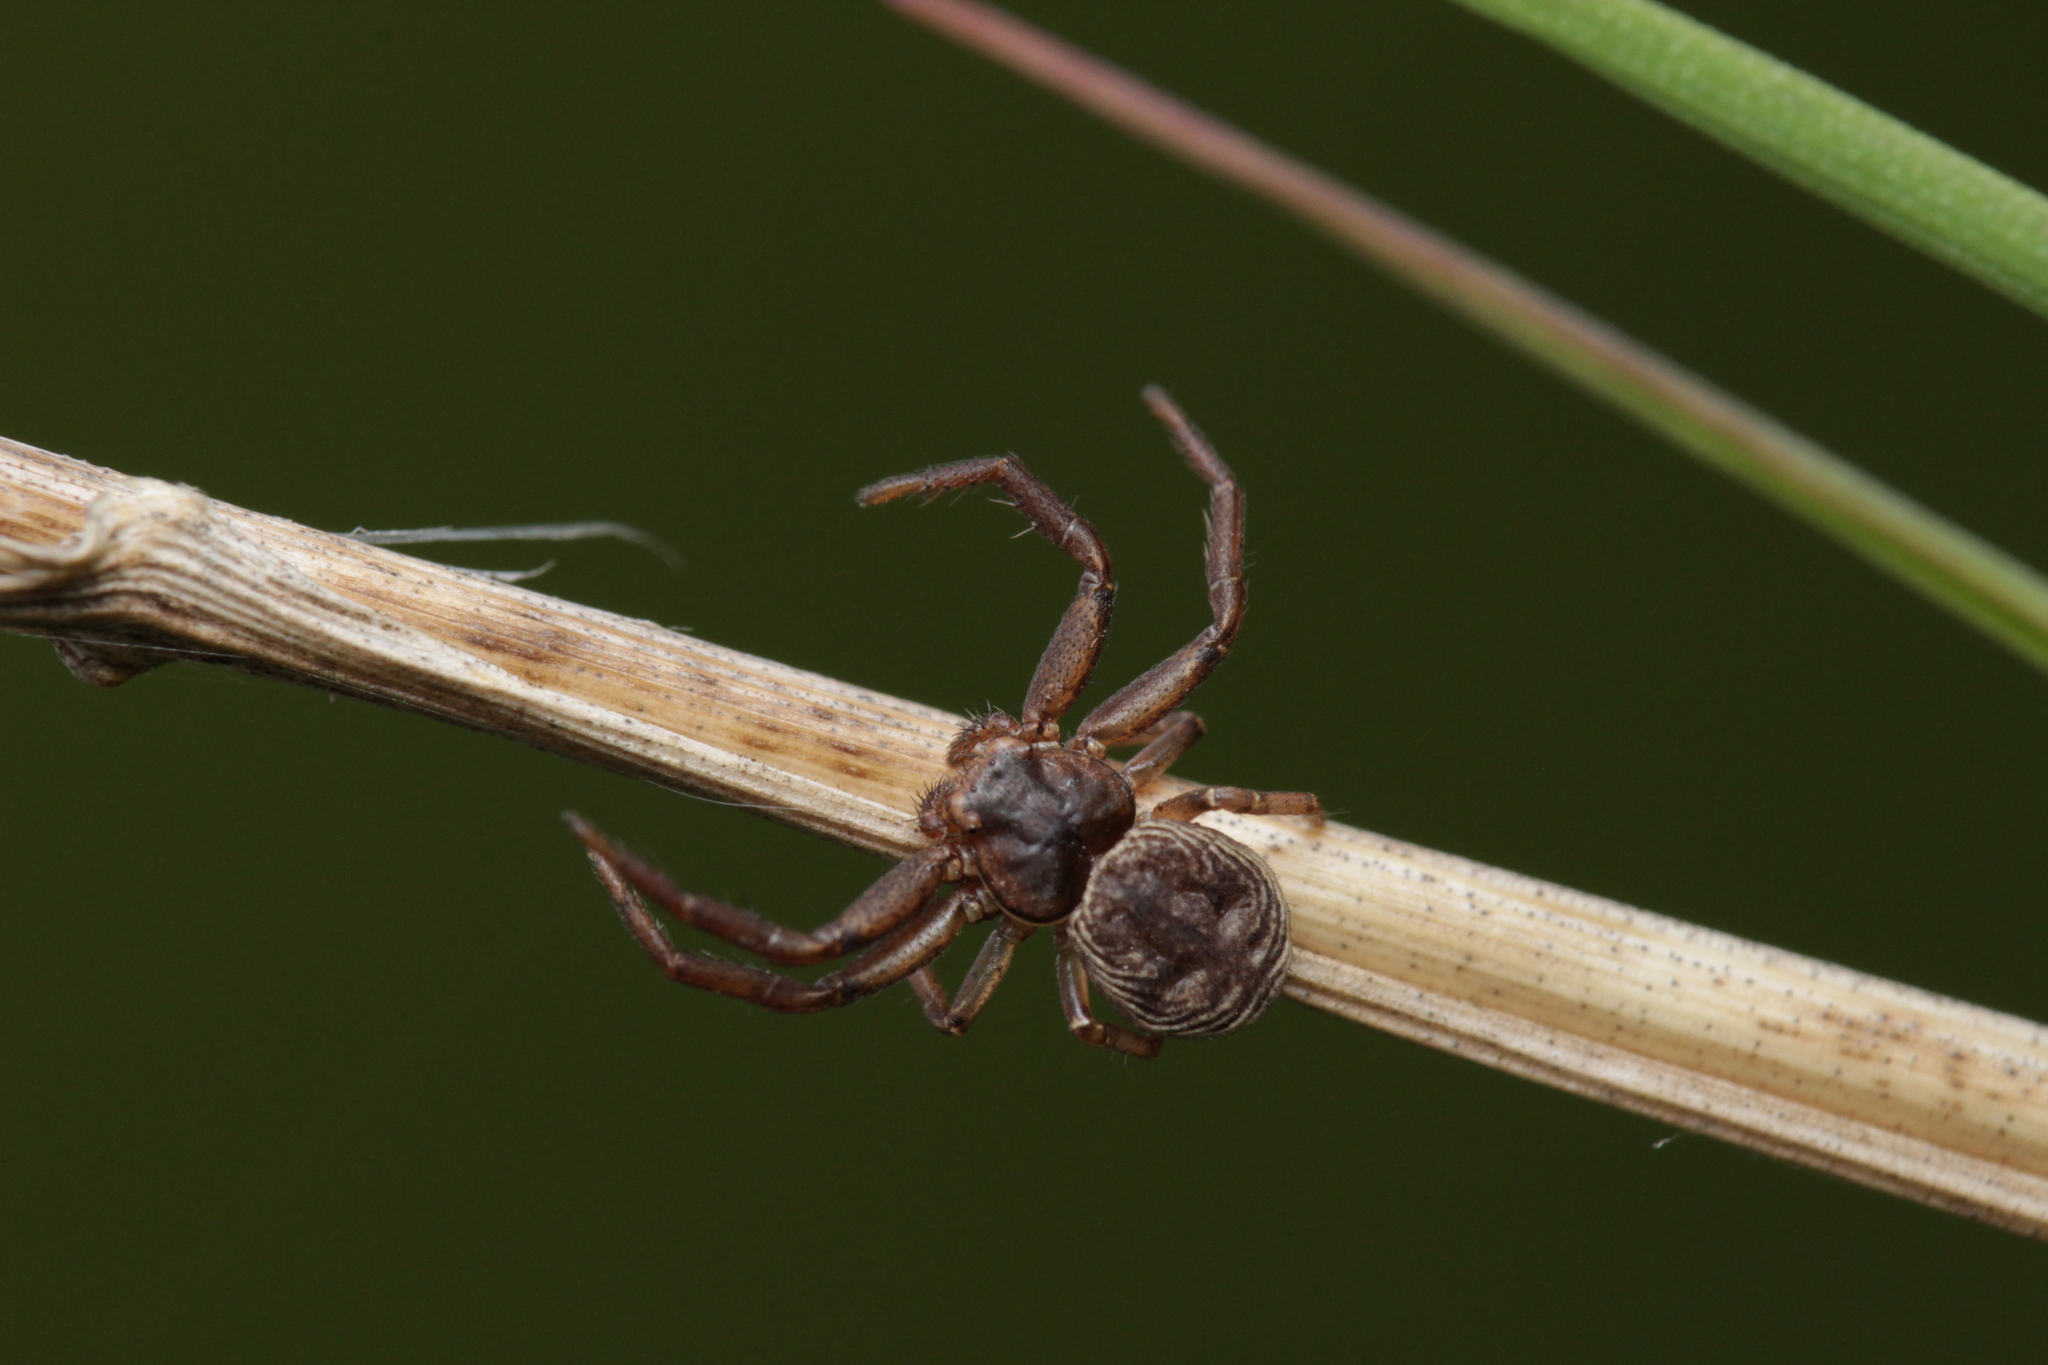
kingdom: Animalia
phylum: Arthropoda
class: Arachnida
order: Araneae
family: Thomisidae
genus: Coriarachne
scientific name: Coriarachne depressa
